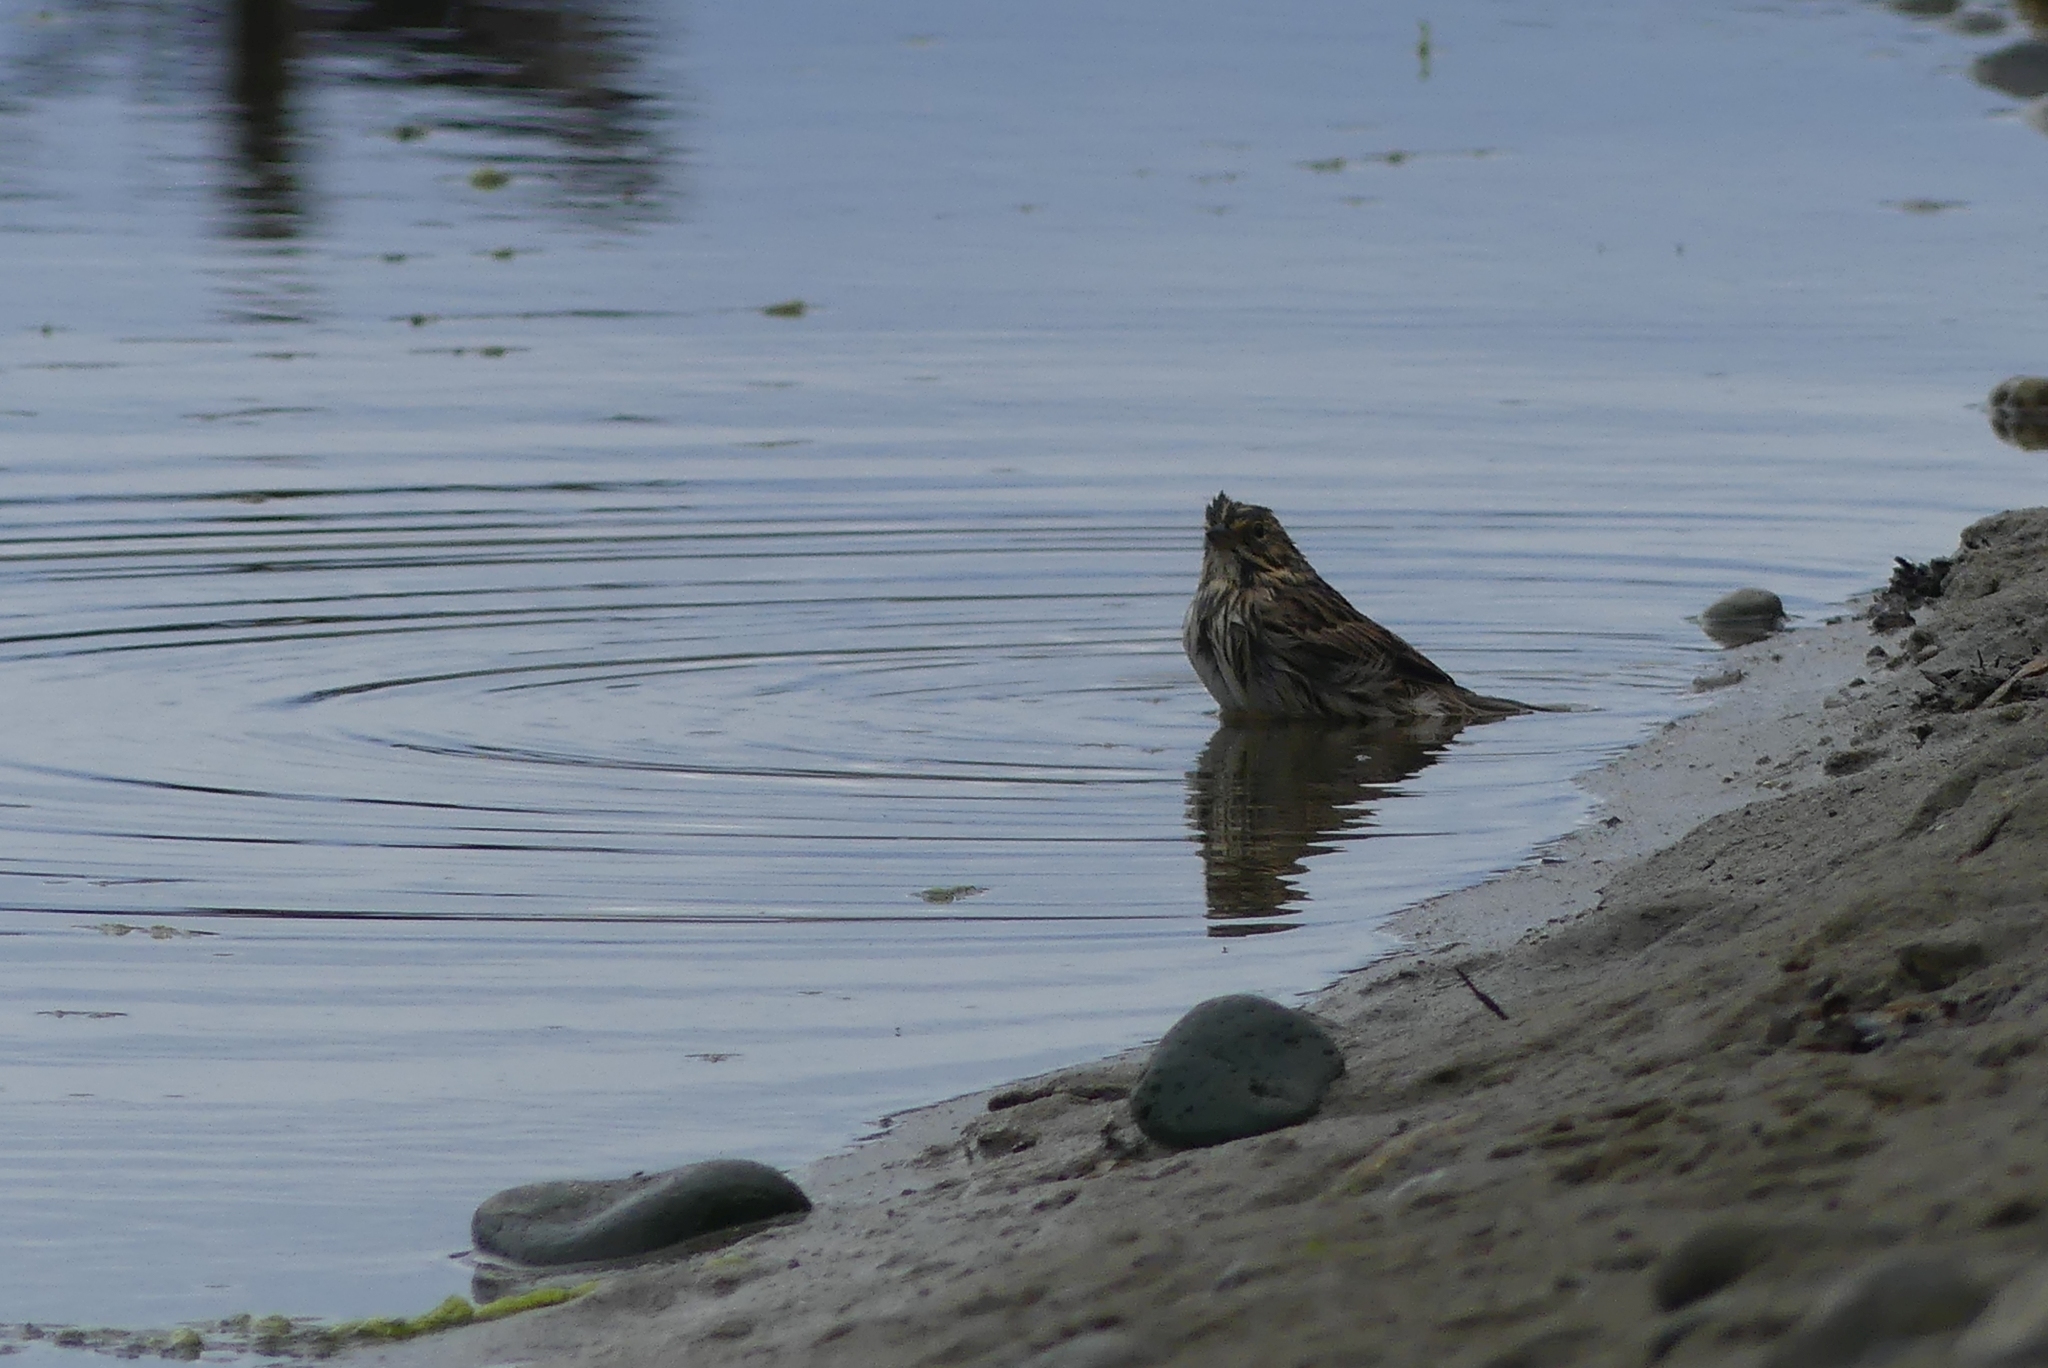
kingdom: Animalia
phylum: Chordata
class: Aves
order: Passeriformes
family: Passerellidae
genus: Passerculus
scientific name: Passerculus sandwichensis
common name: Savannah sparrow
